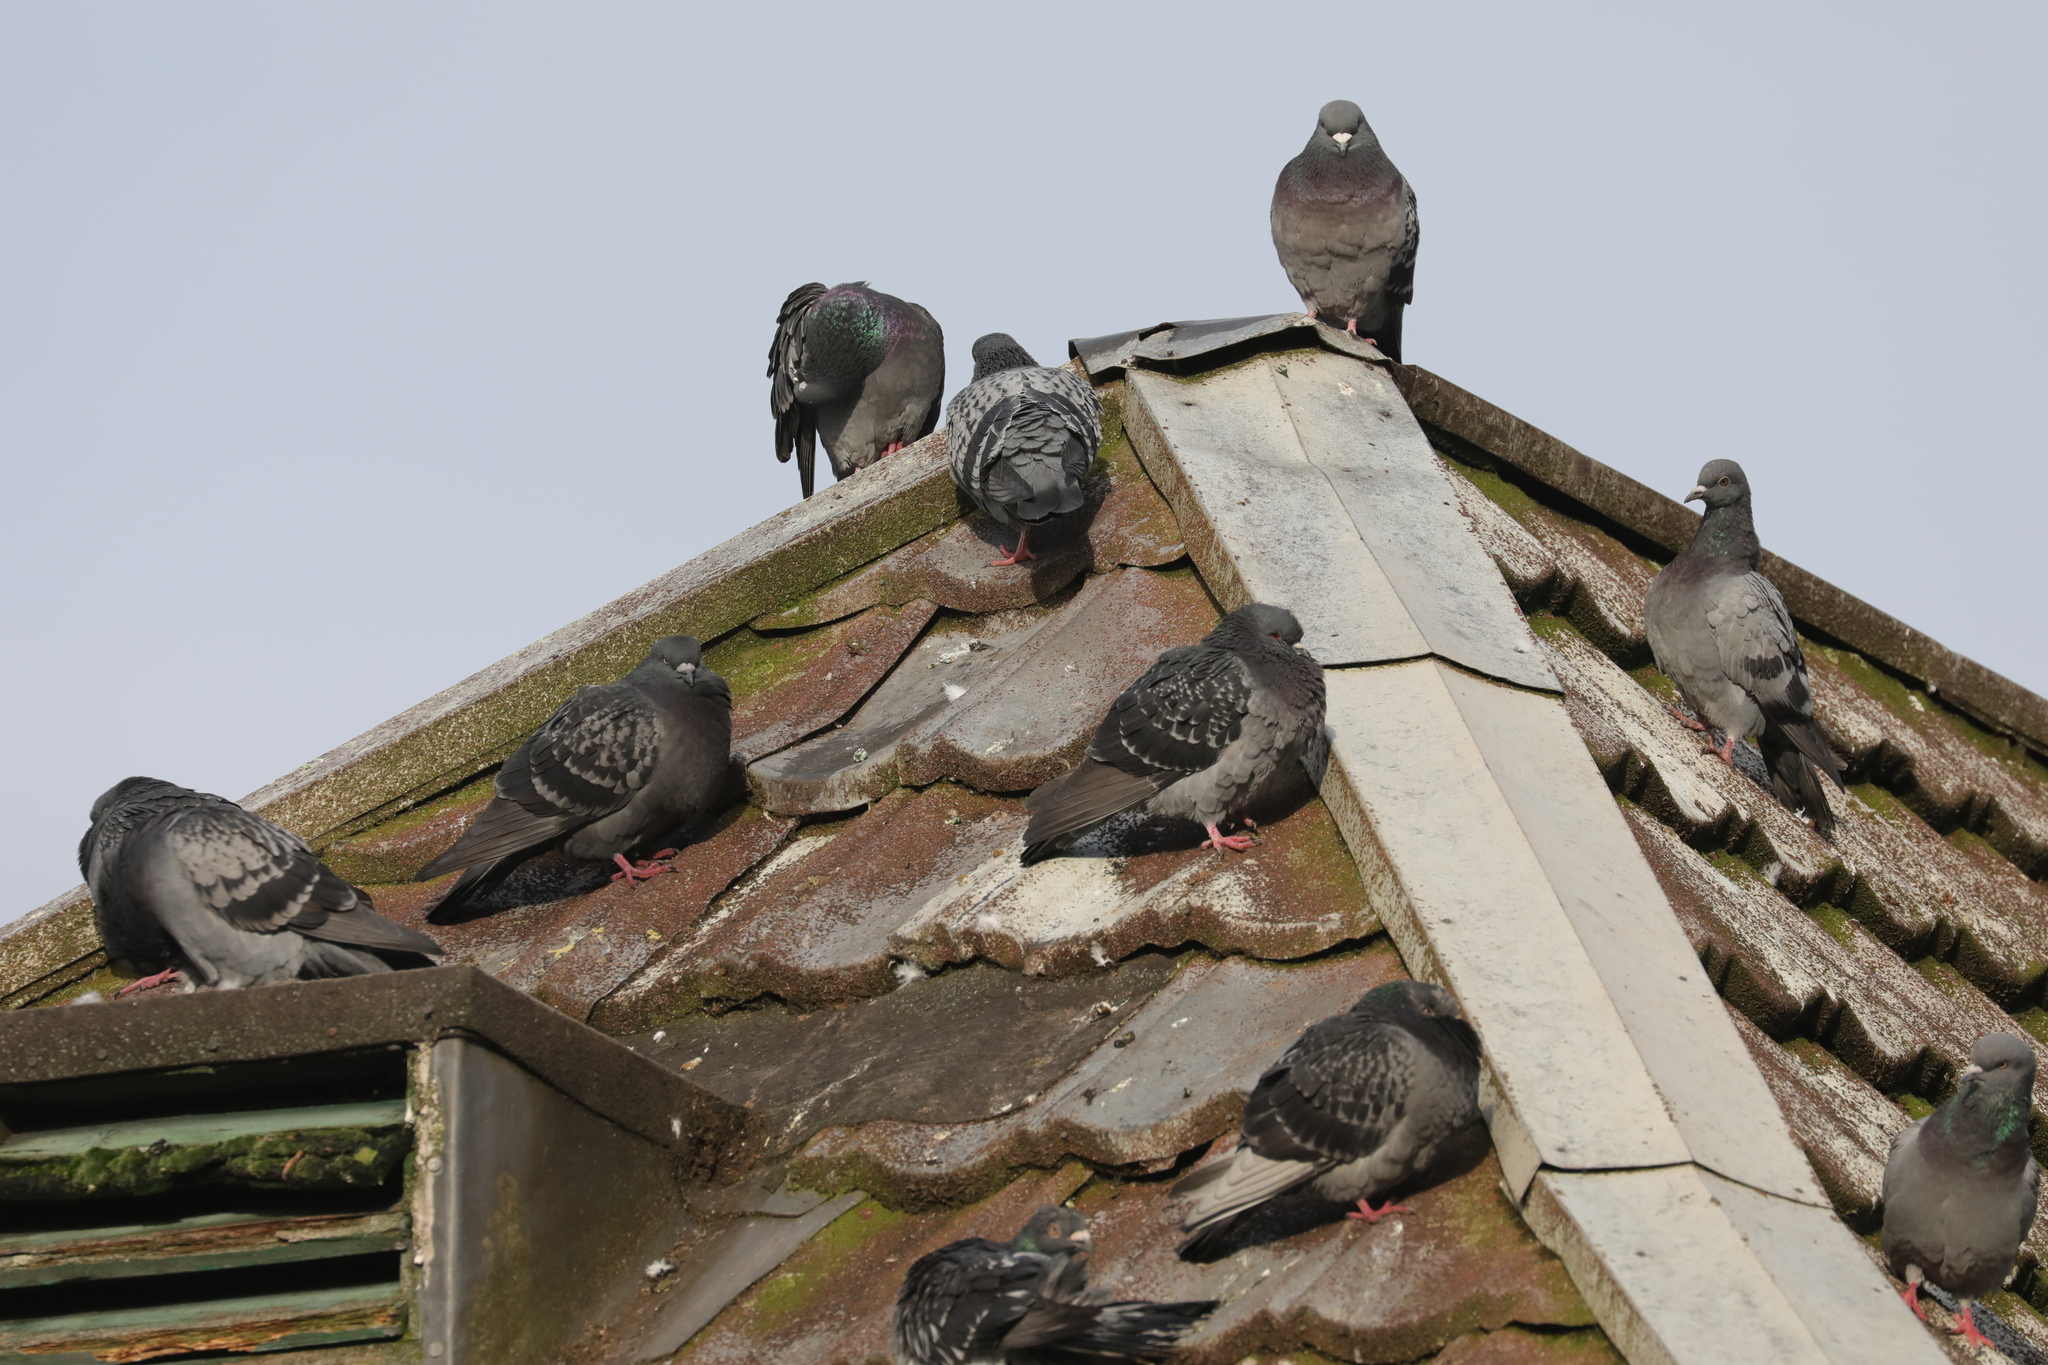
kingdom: Animalia
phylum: Chordata
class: Aves
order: Columbiformes
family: Columbidae
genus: Columba
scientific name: Columba livia
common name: Rock pigeon
